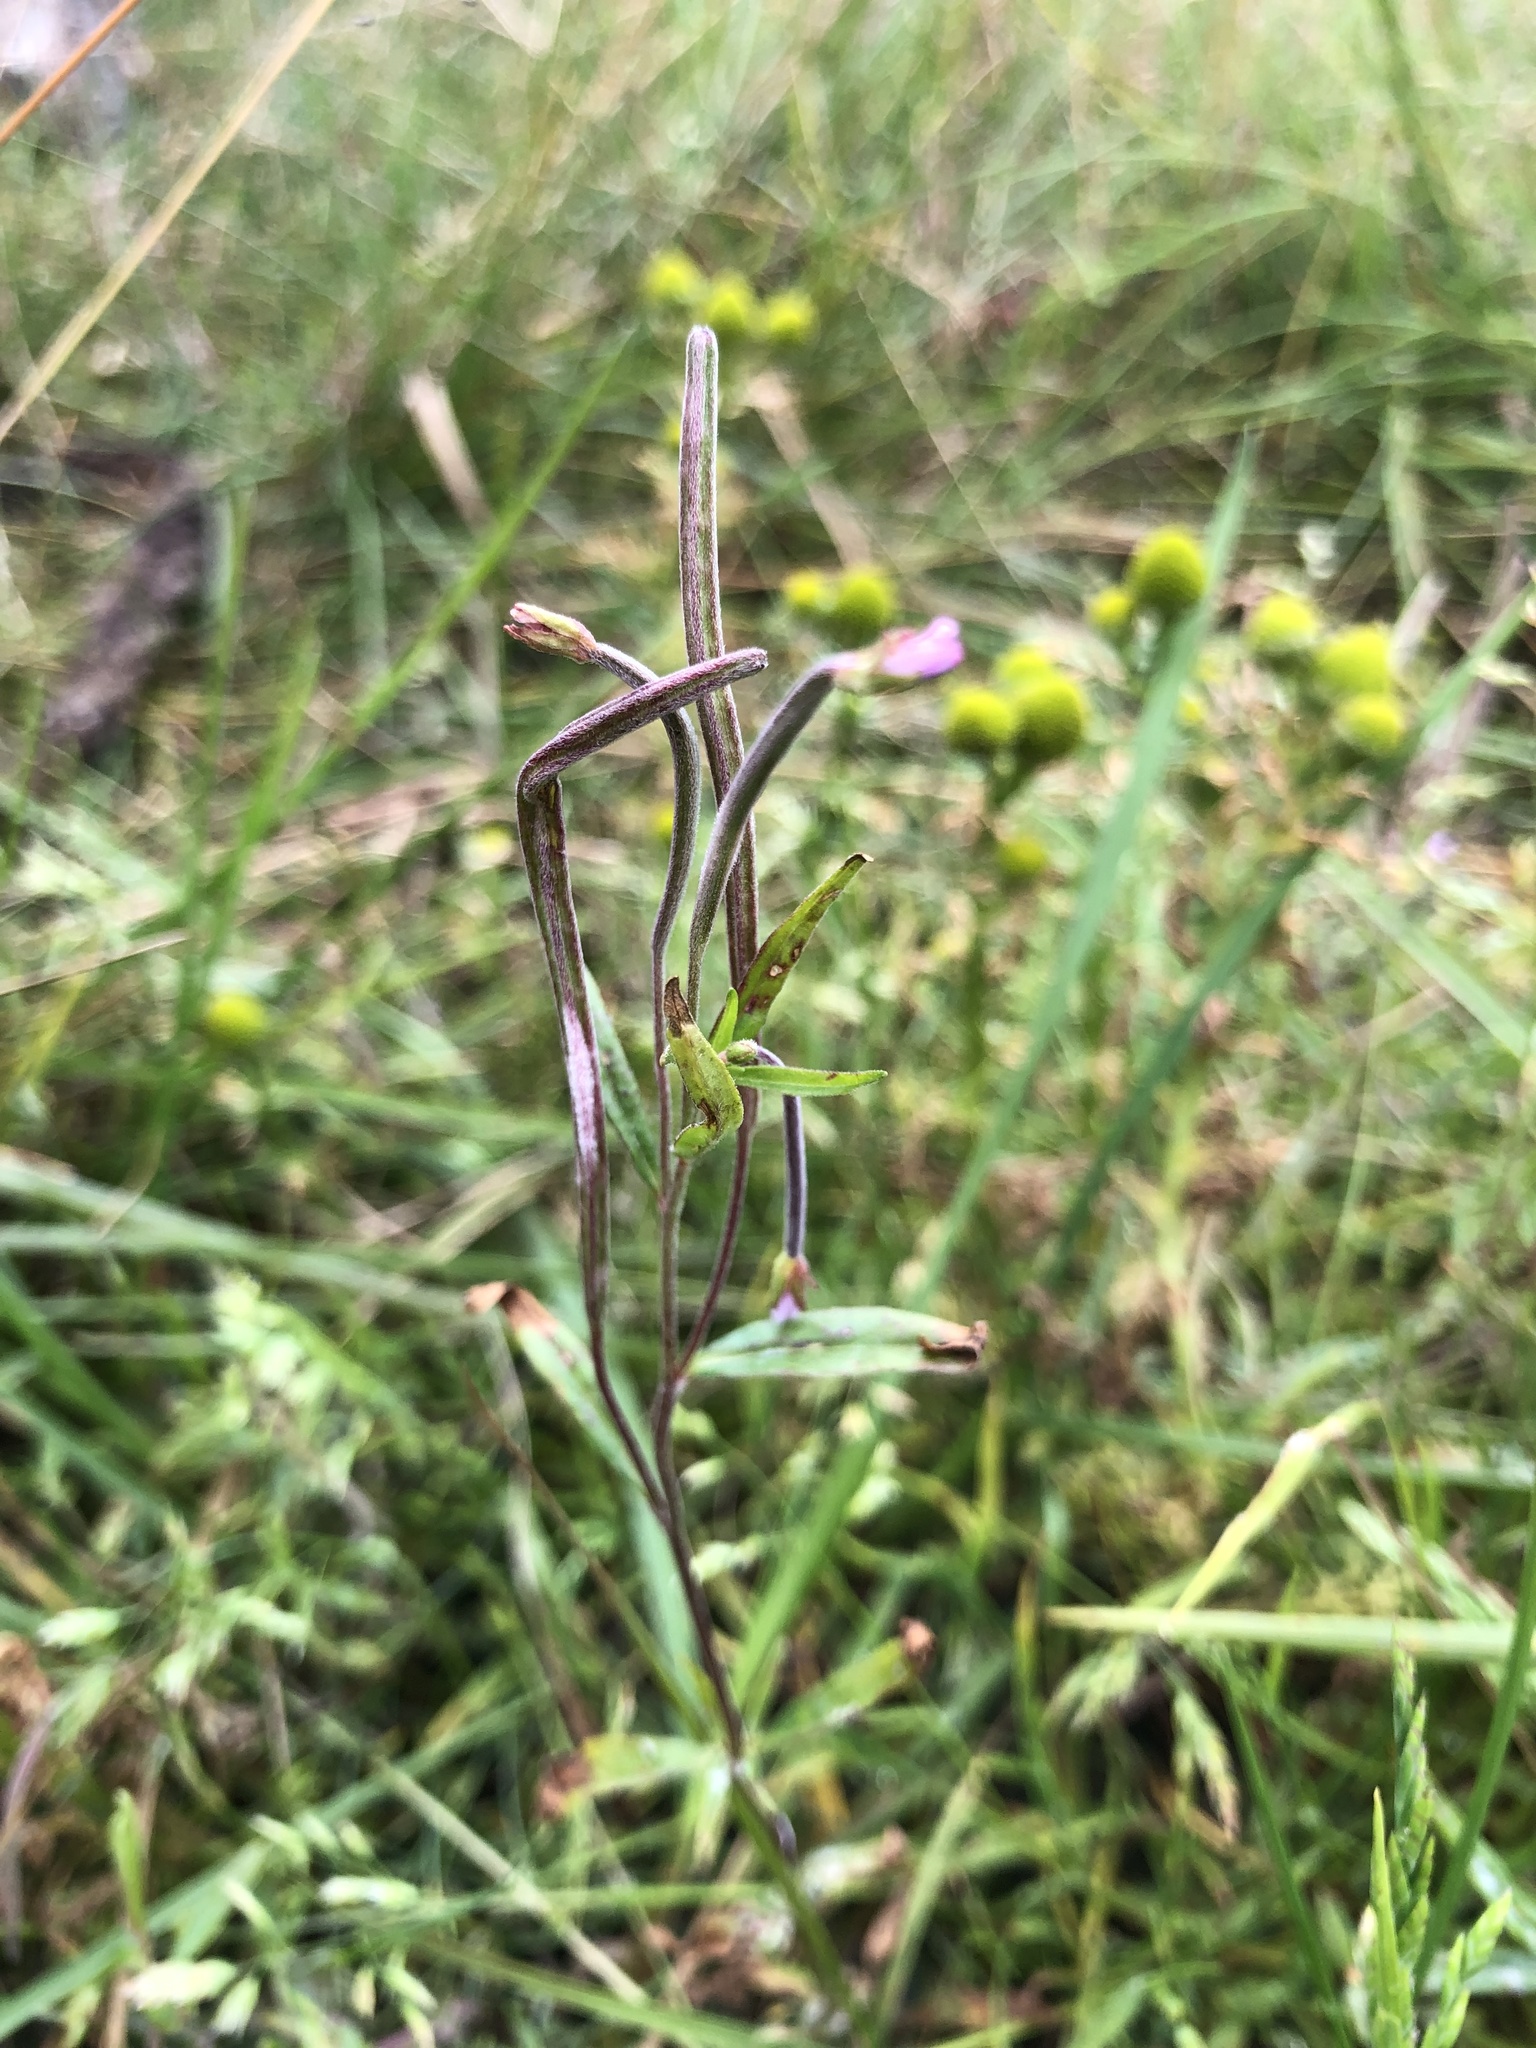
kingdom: Plantae
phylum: Tracheophyta
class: Magnoliopsida
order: Myrtales
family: Onagraceae
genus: Epilobium
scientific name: Epilobium palustre
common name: Marsh willowherb
